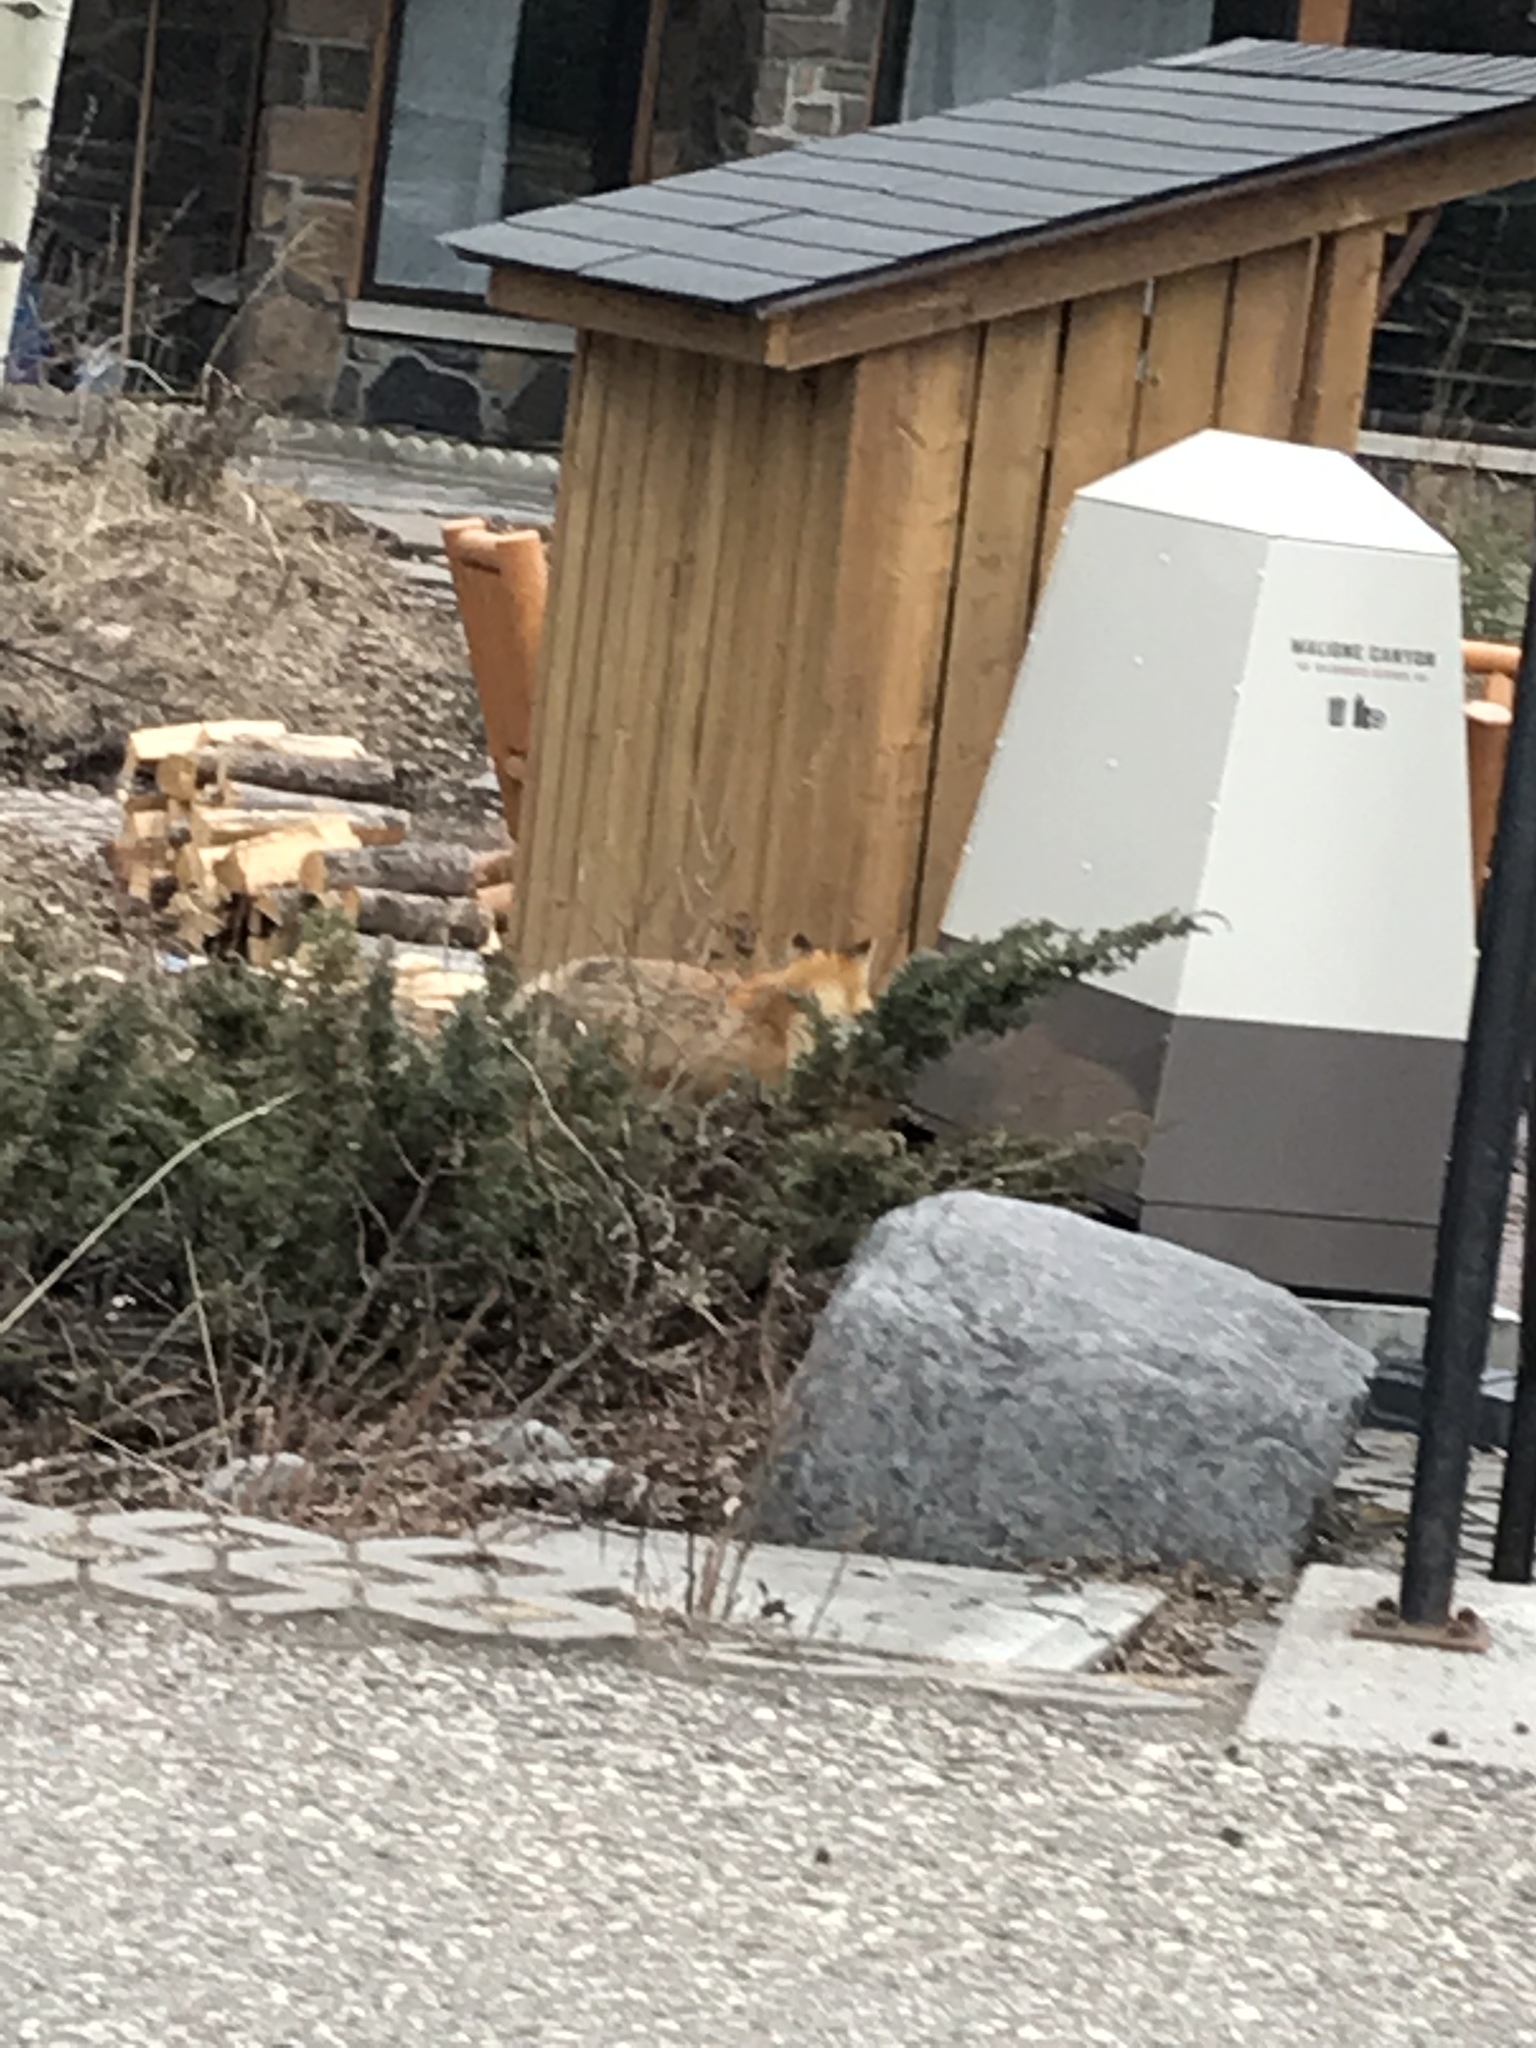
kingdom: Animalia
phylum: Chordata
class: Mammalia
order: Carnivora
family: Canidae
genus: Vulpes
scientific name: Vulpes vulpes
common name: Red fox
